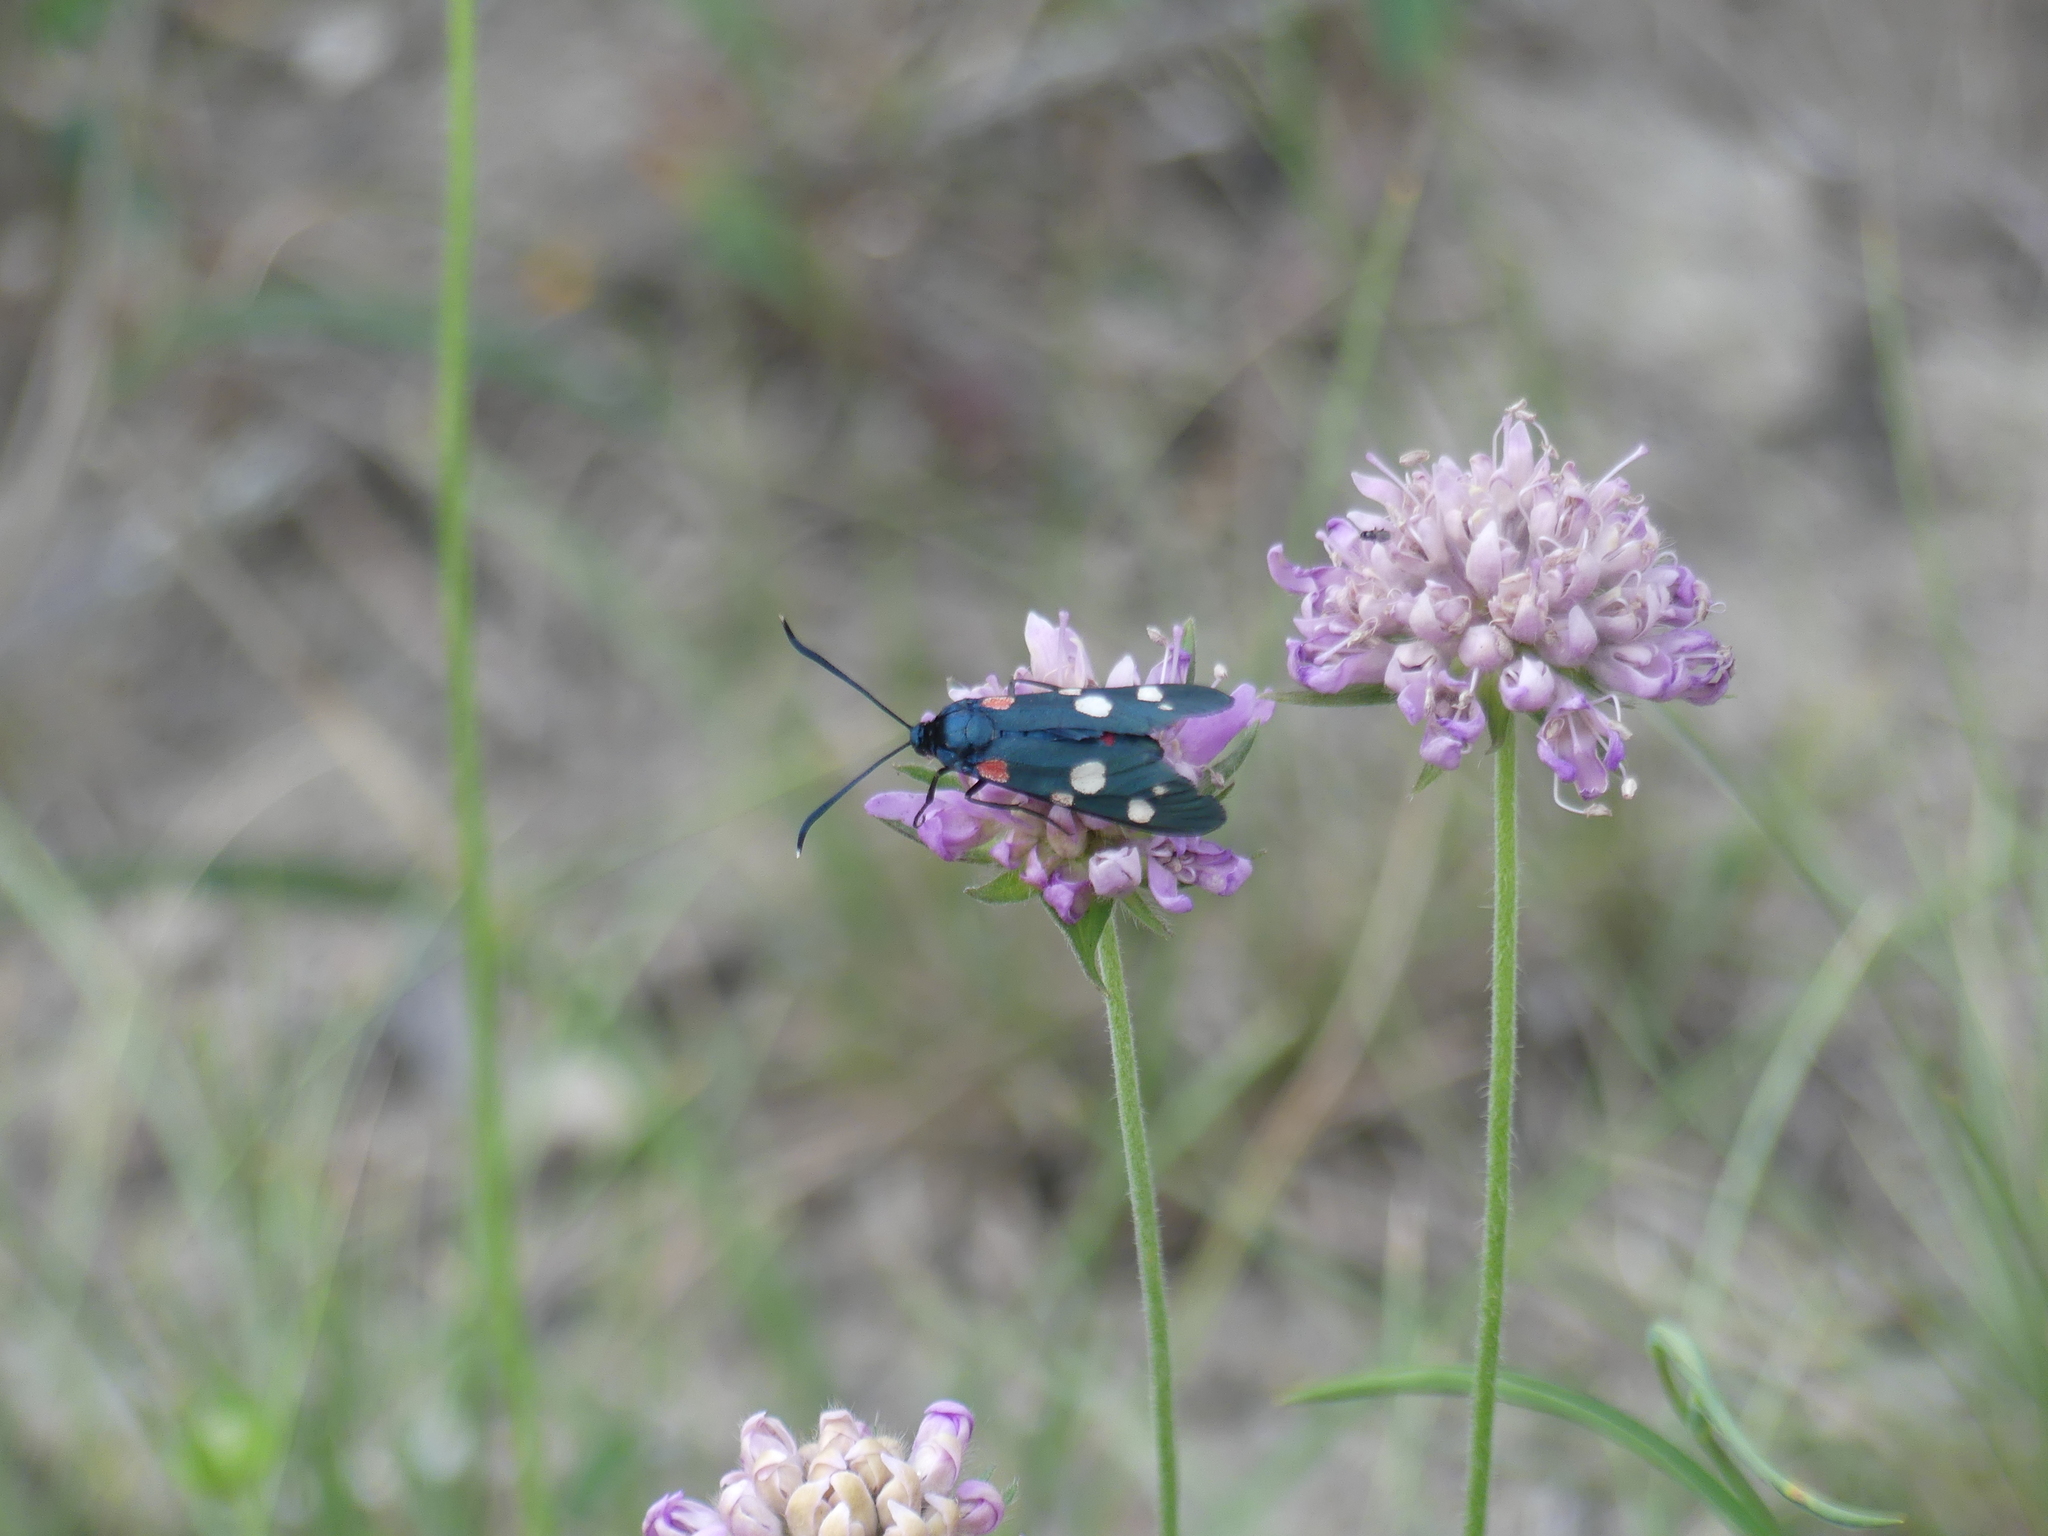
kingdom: Animalia
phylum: Arthropoda
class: Insecta
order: Lepidoptera
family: Zygaenidae
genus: Zygaena
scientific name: Zygaena ephialtes
